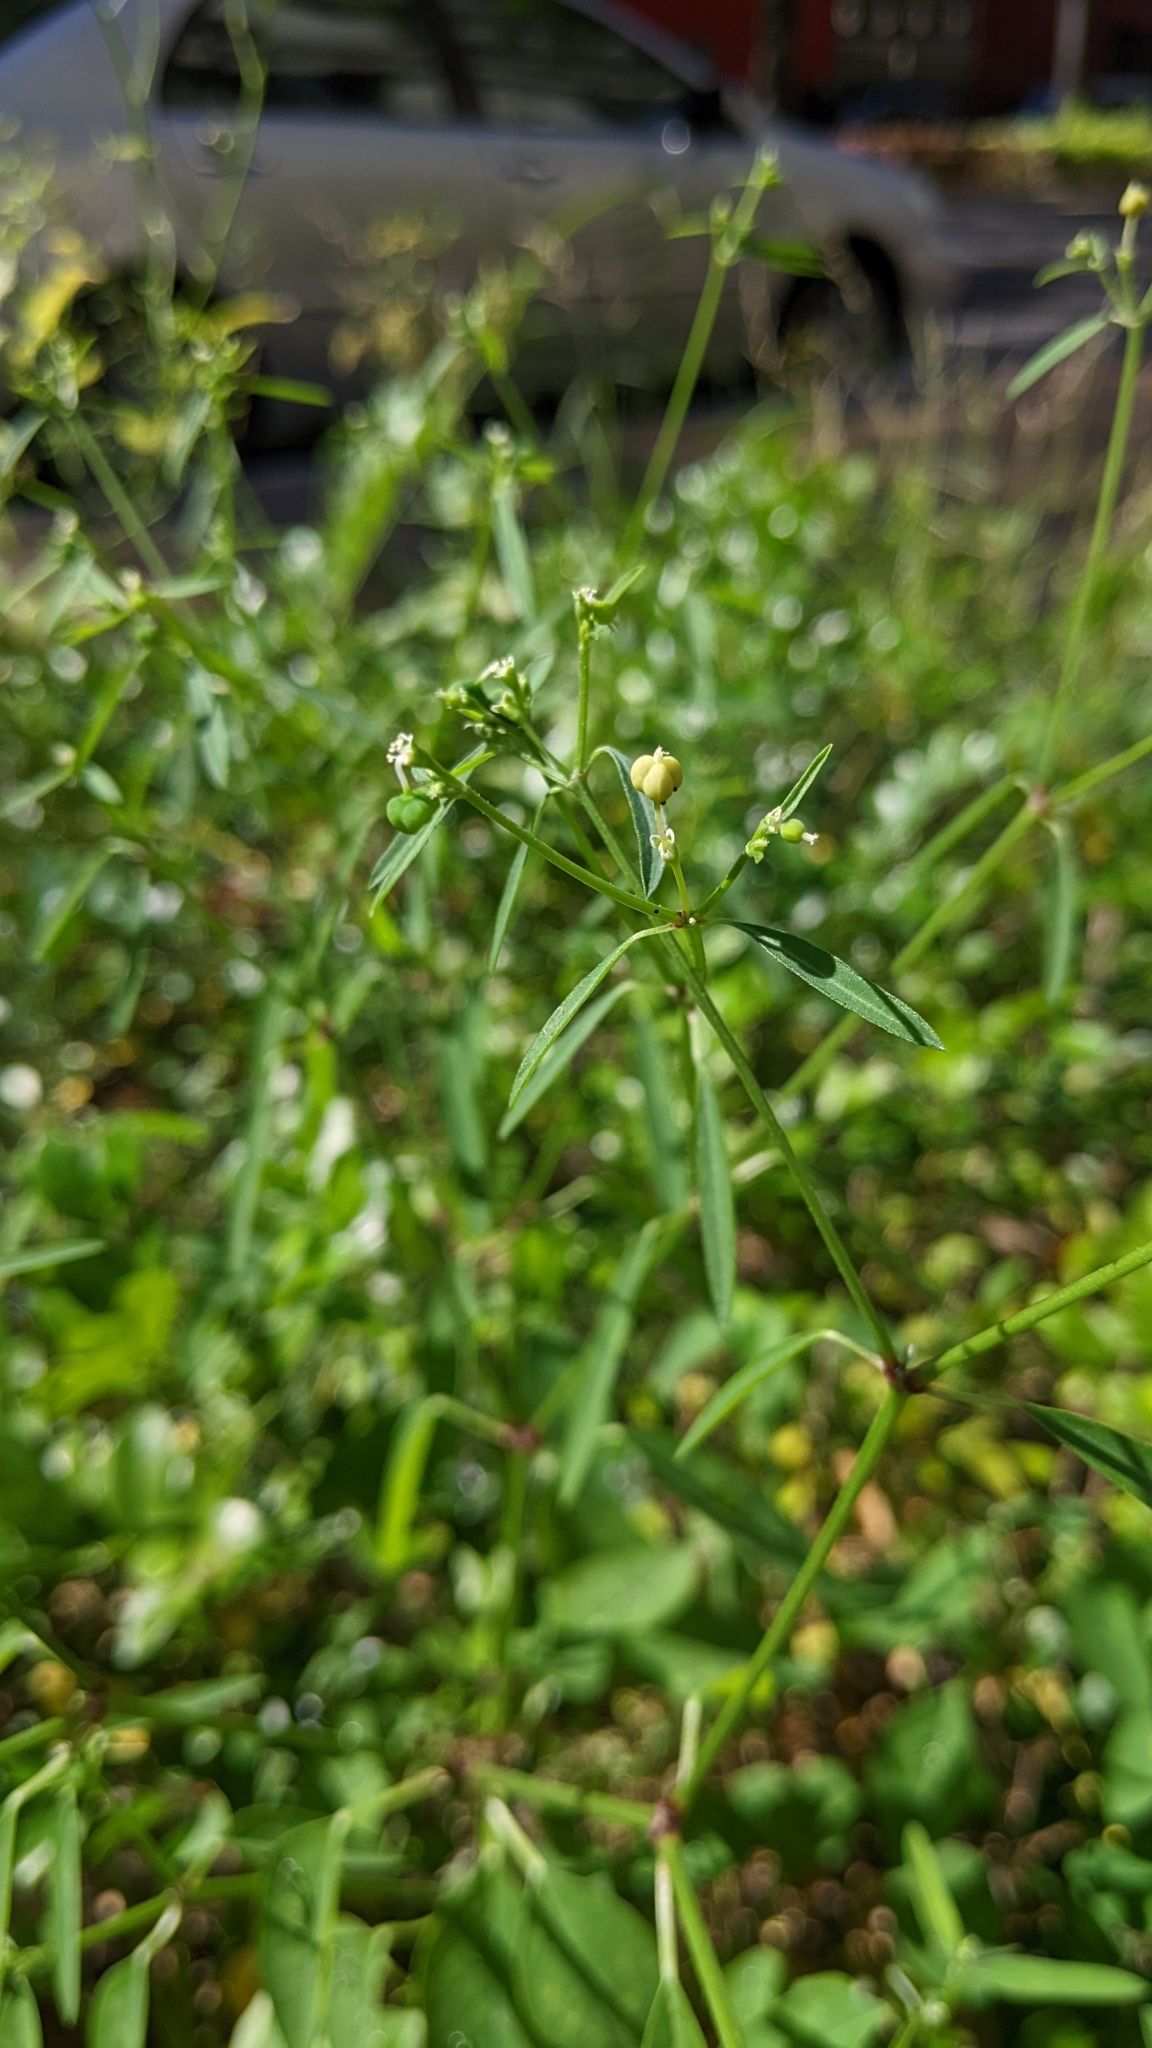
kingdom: Plantae
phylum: Tracheophyta
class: Magnoliopsida
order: Malpighiales
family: Euphorbiaceae
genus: Euphorbia
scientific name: Euphorbia graminea
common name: Grassleaf spurge
